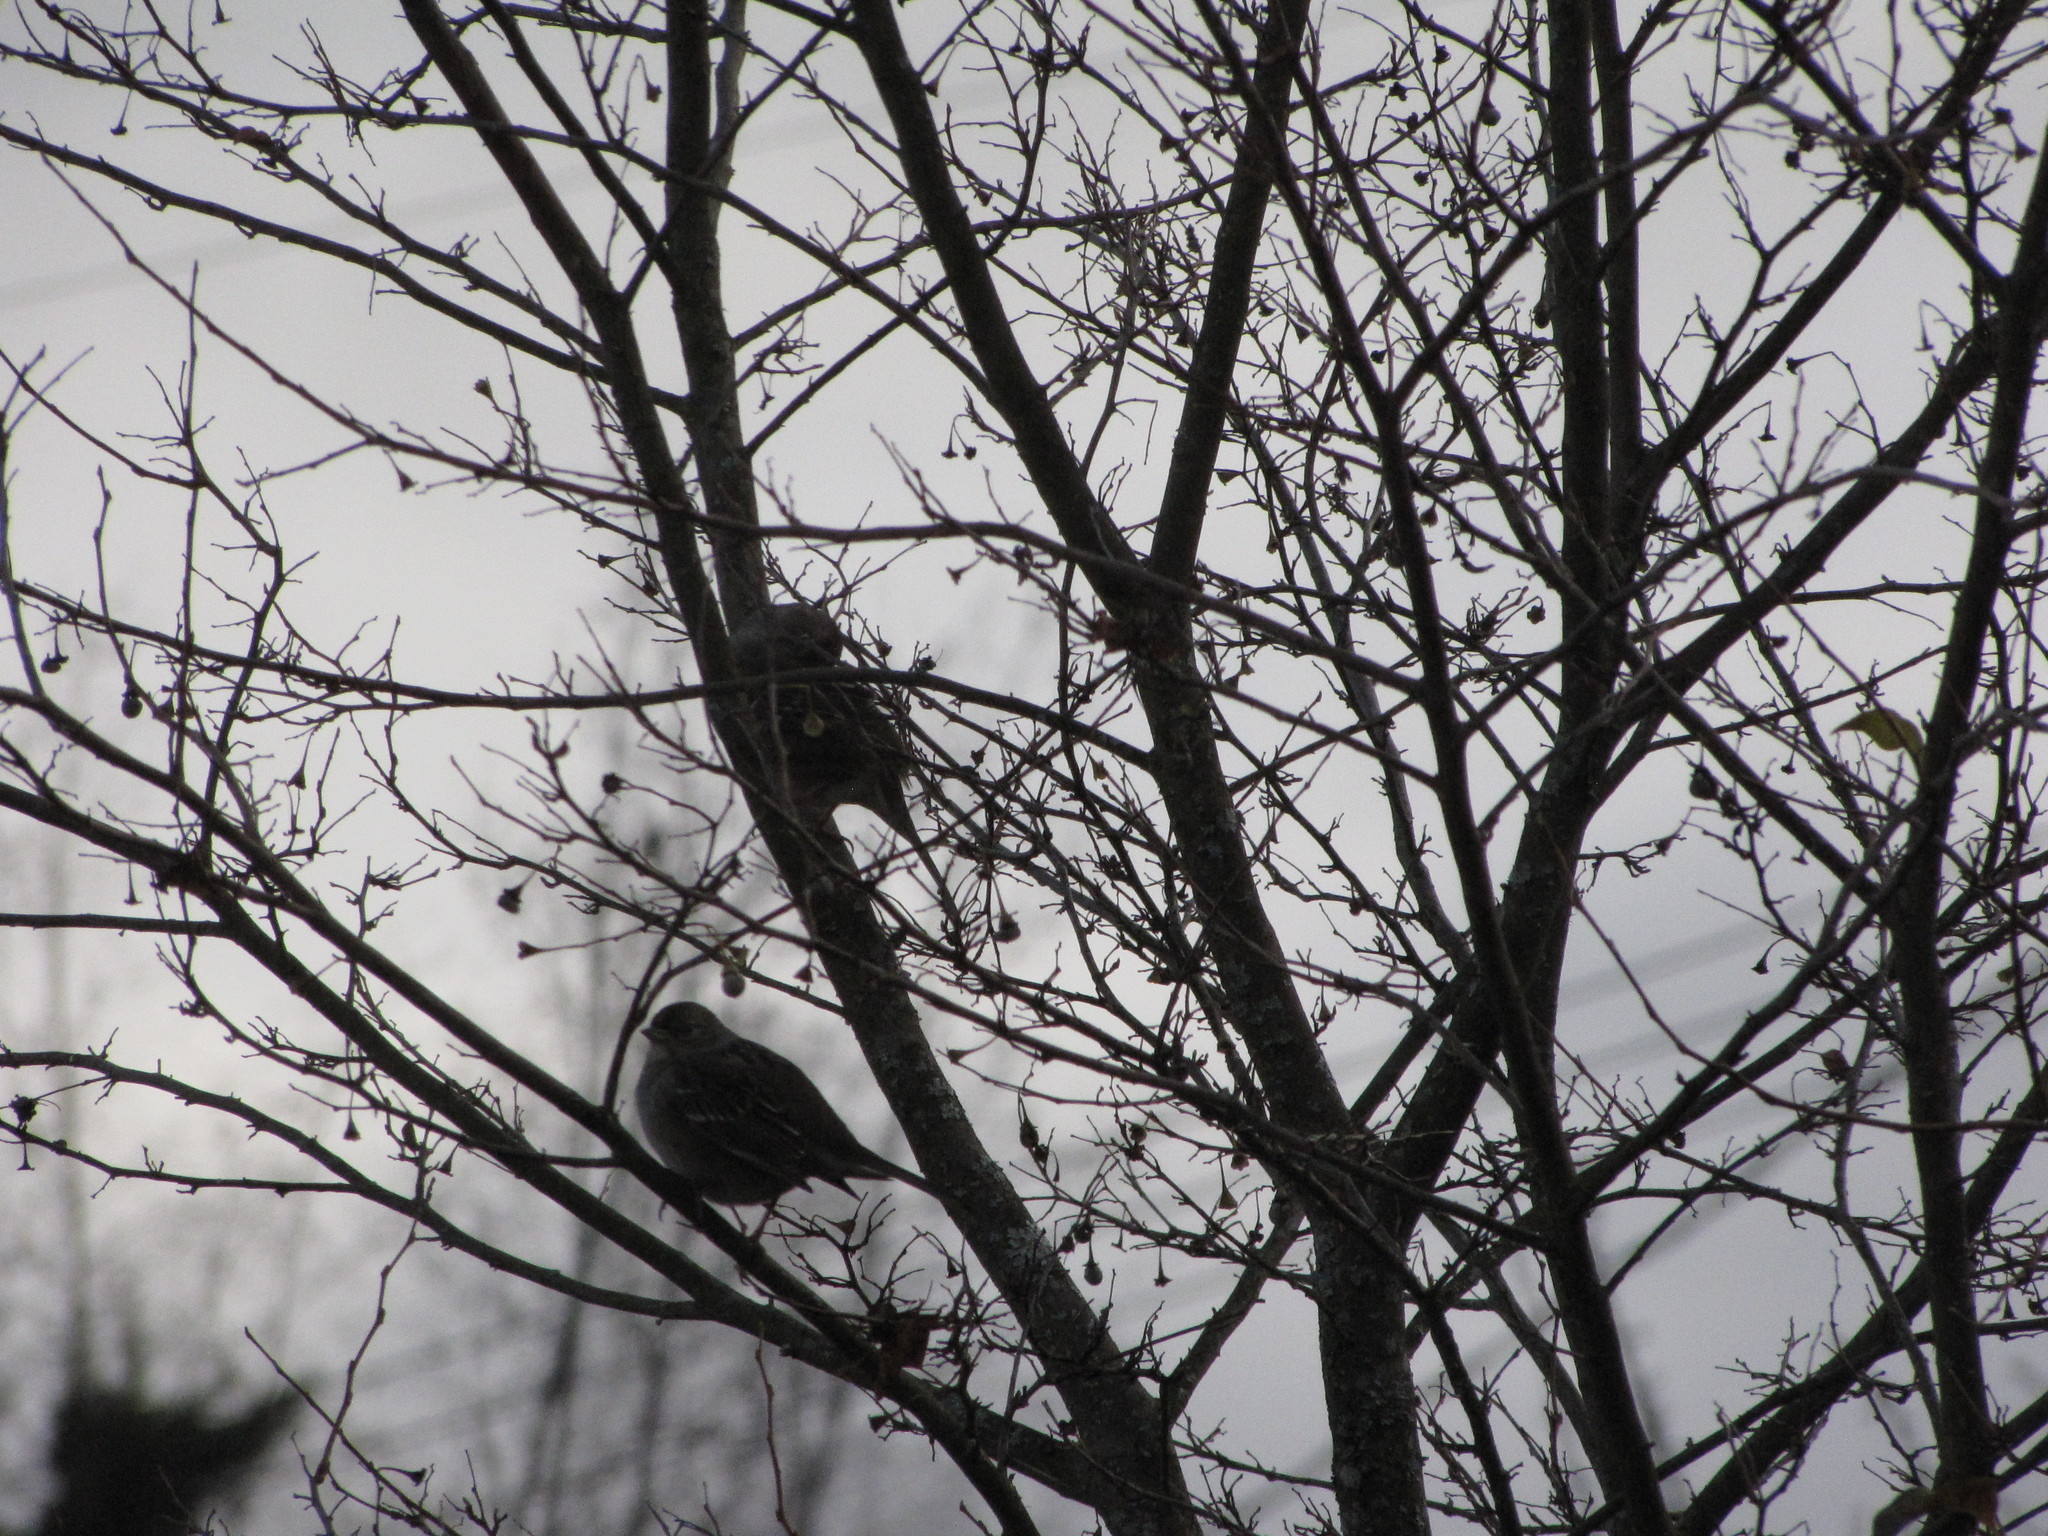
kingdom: Animalia
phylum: Chordata
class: Aves
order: Passeriformes
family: Passerellidae
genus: Zonotrichia
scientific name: Zonotrichia atricapilla
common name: Golden-crowned sparrow
